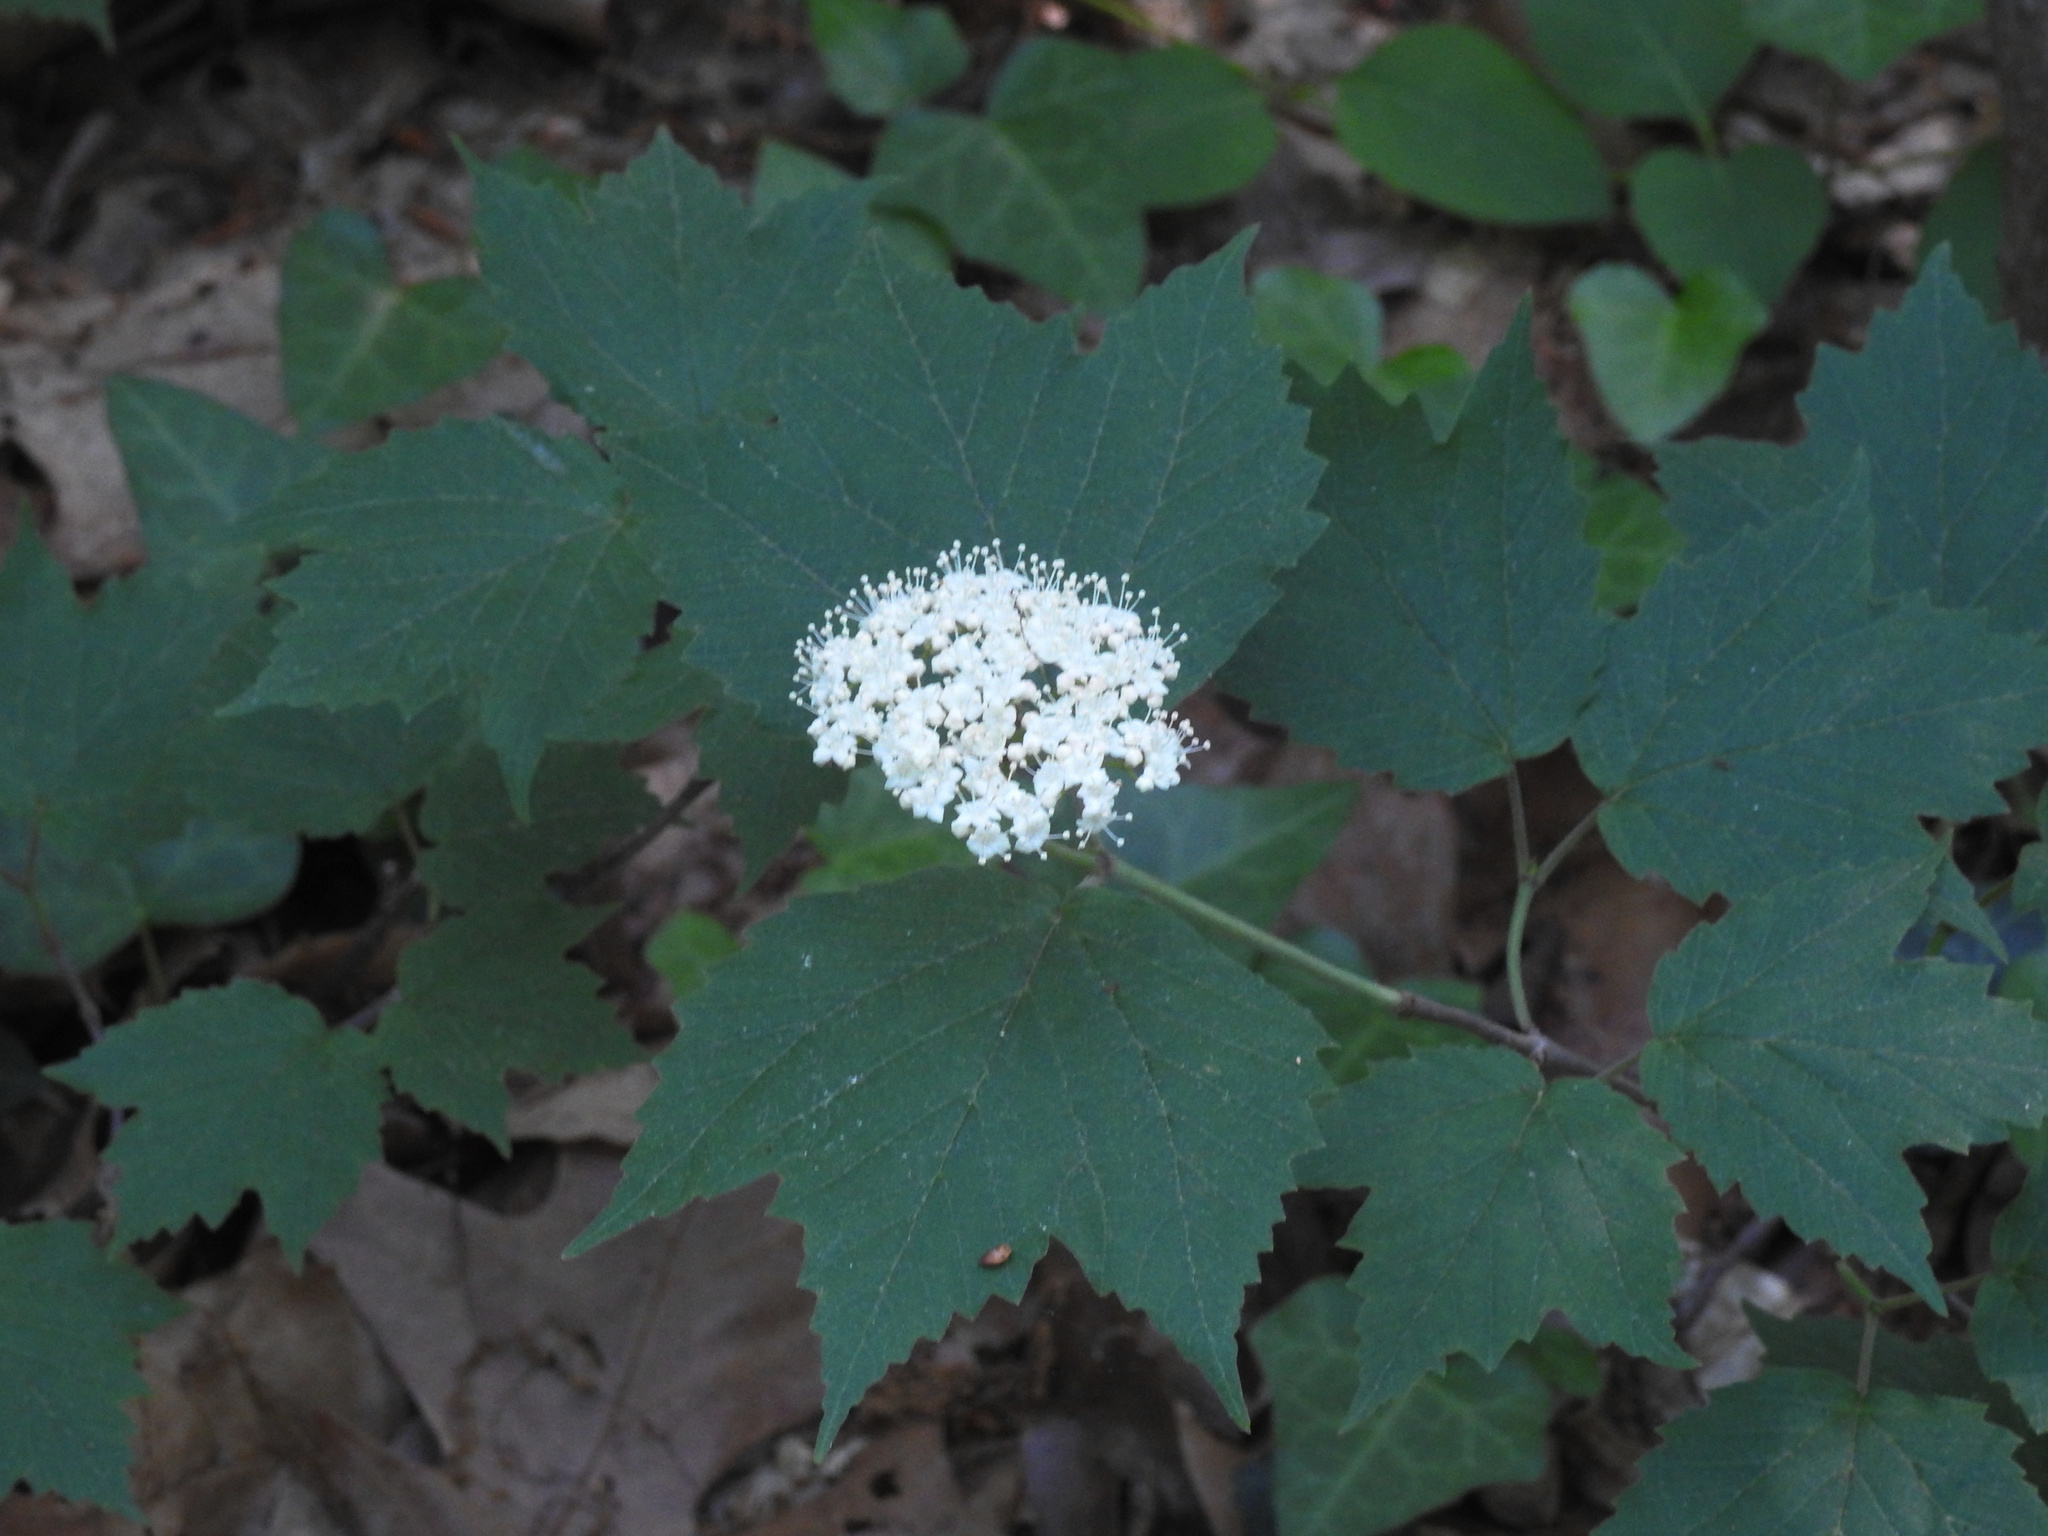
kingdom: Plantae
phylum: Tracheophyta
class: Magnoliopsida
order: Dipsacales
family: Viburnaceae
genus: Viburnum
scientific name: Viburnum acerifolium
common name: Dockmackie
